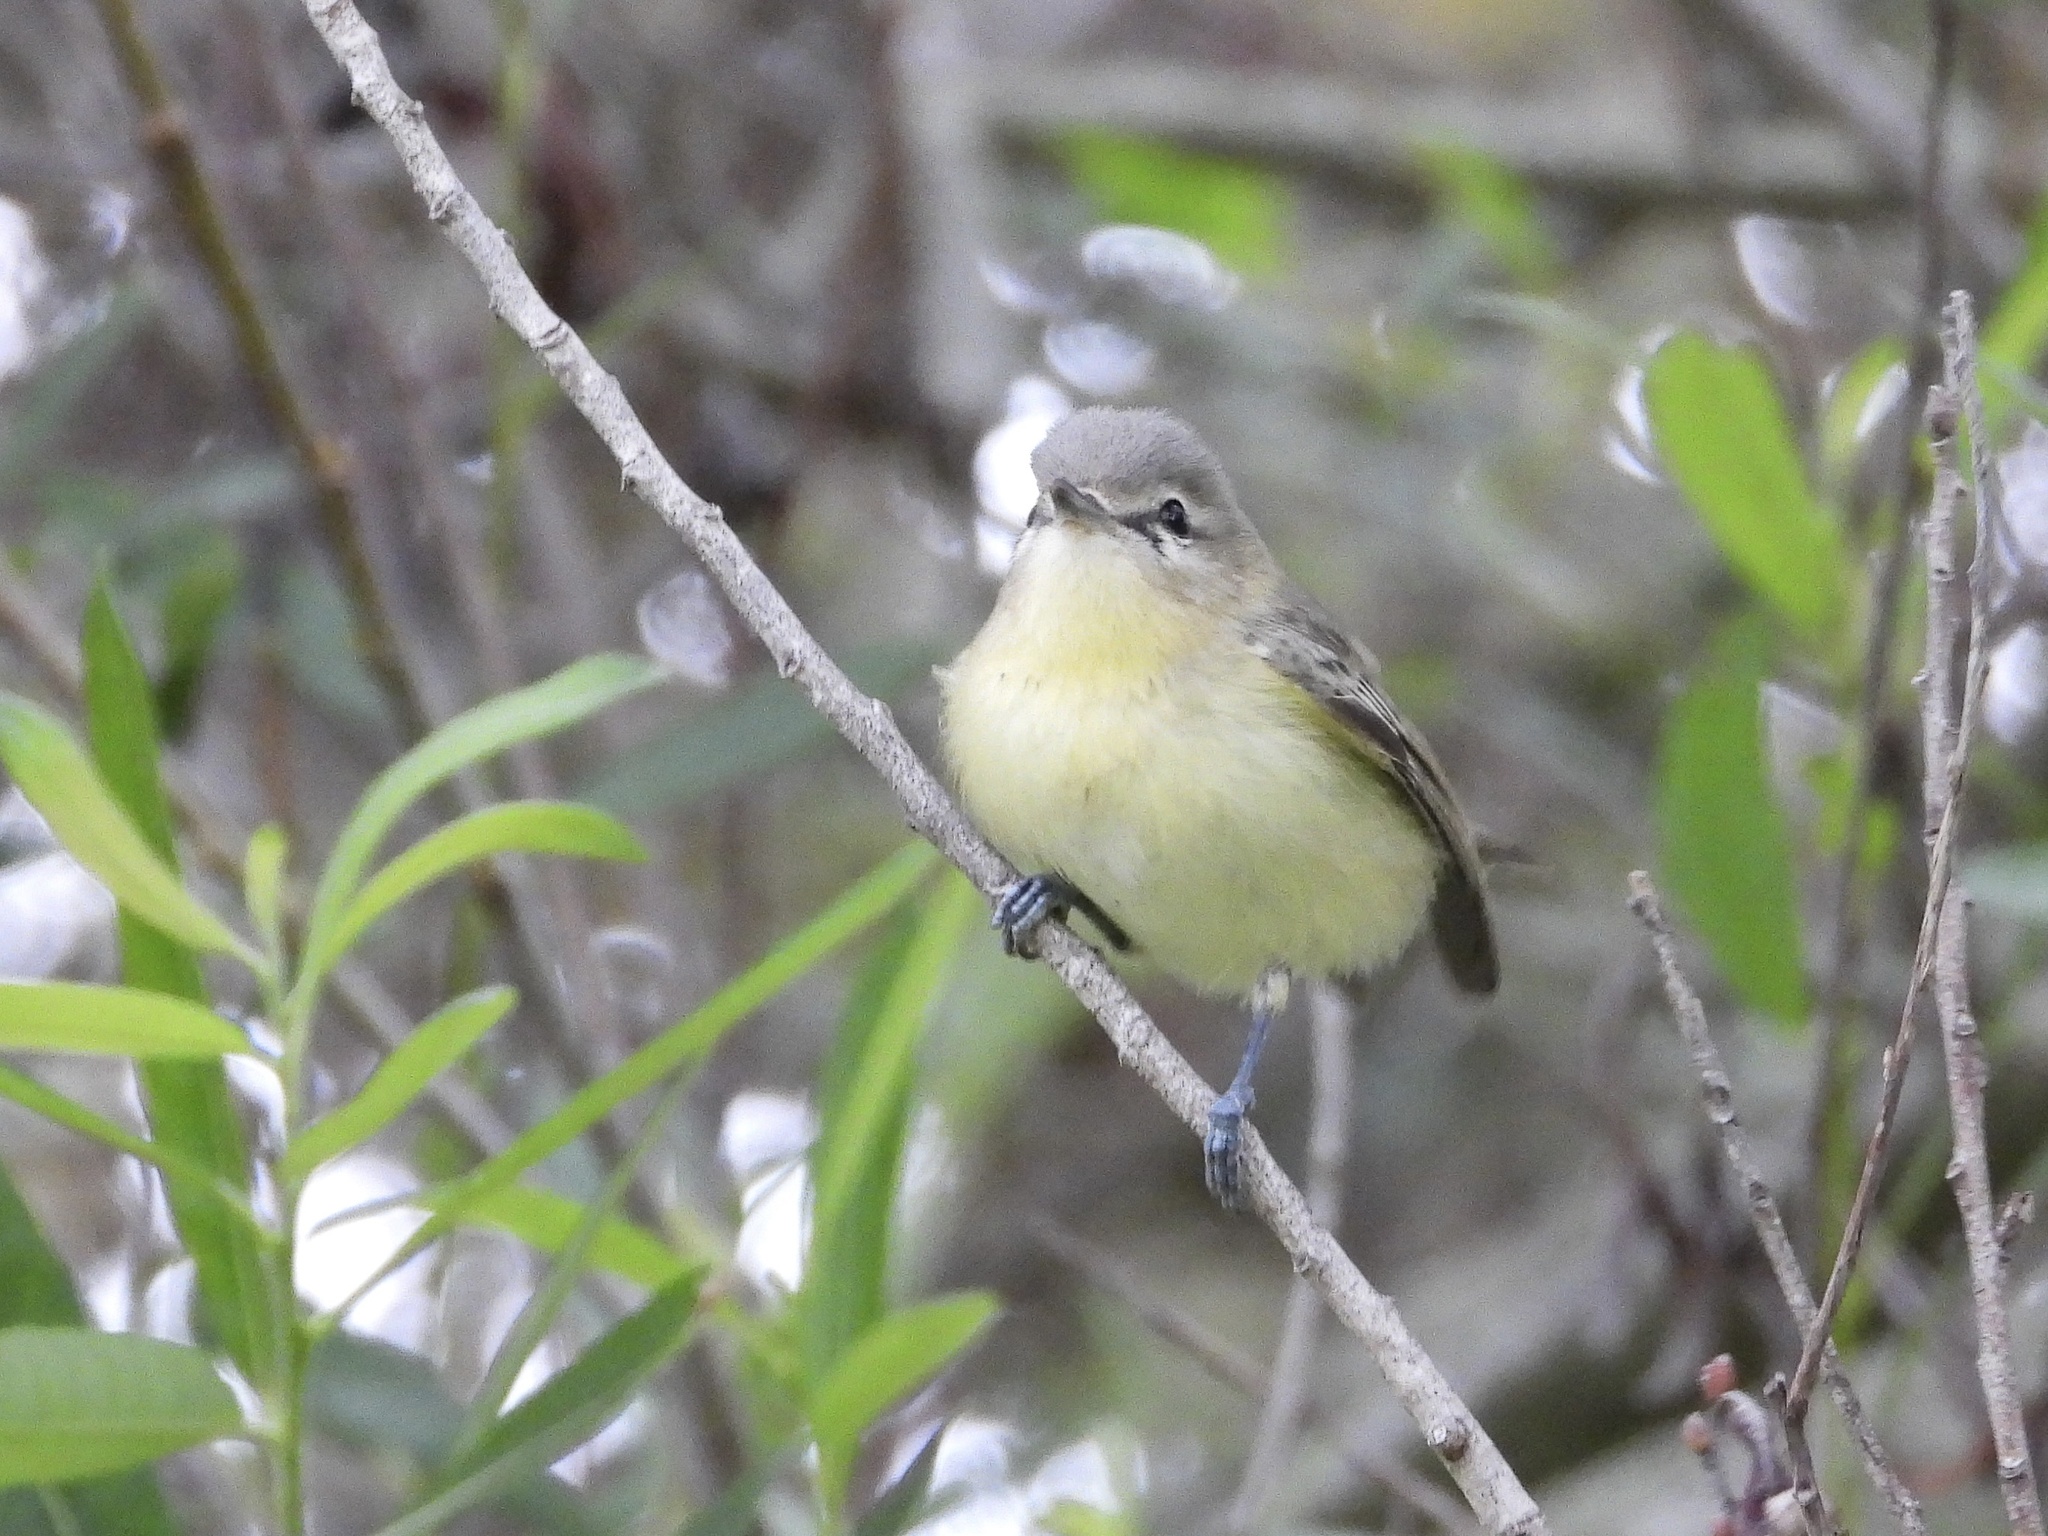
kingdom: Animalia
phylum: Chordata
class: Aves
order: Passeriformes
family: Vireonidae
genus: Vireo
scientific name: Vireo philadelphicus
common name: Philadelphia vireo
